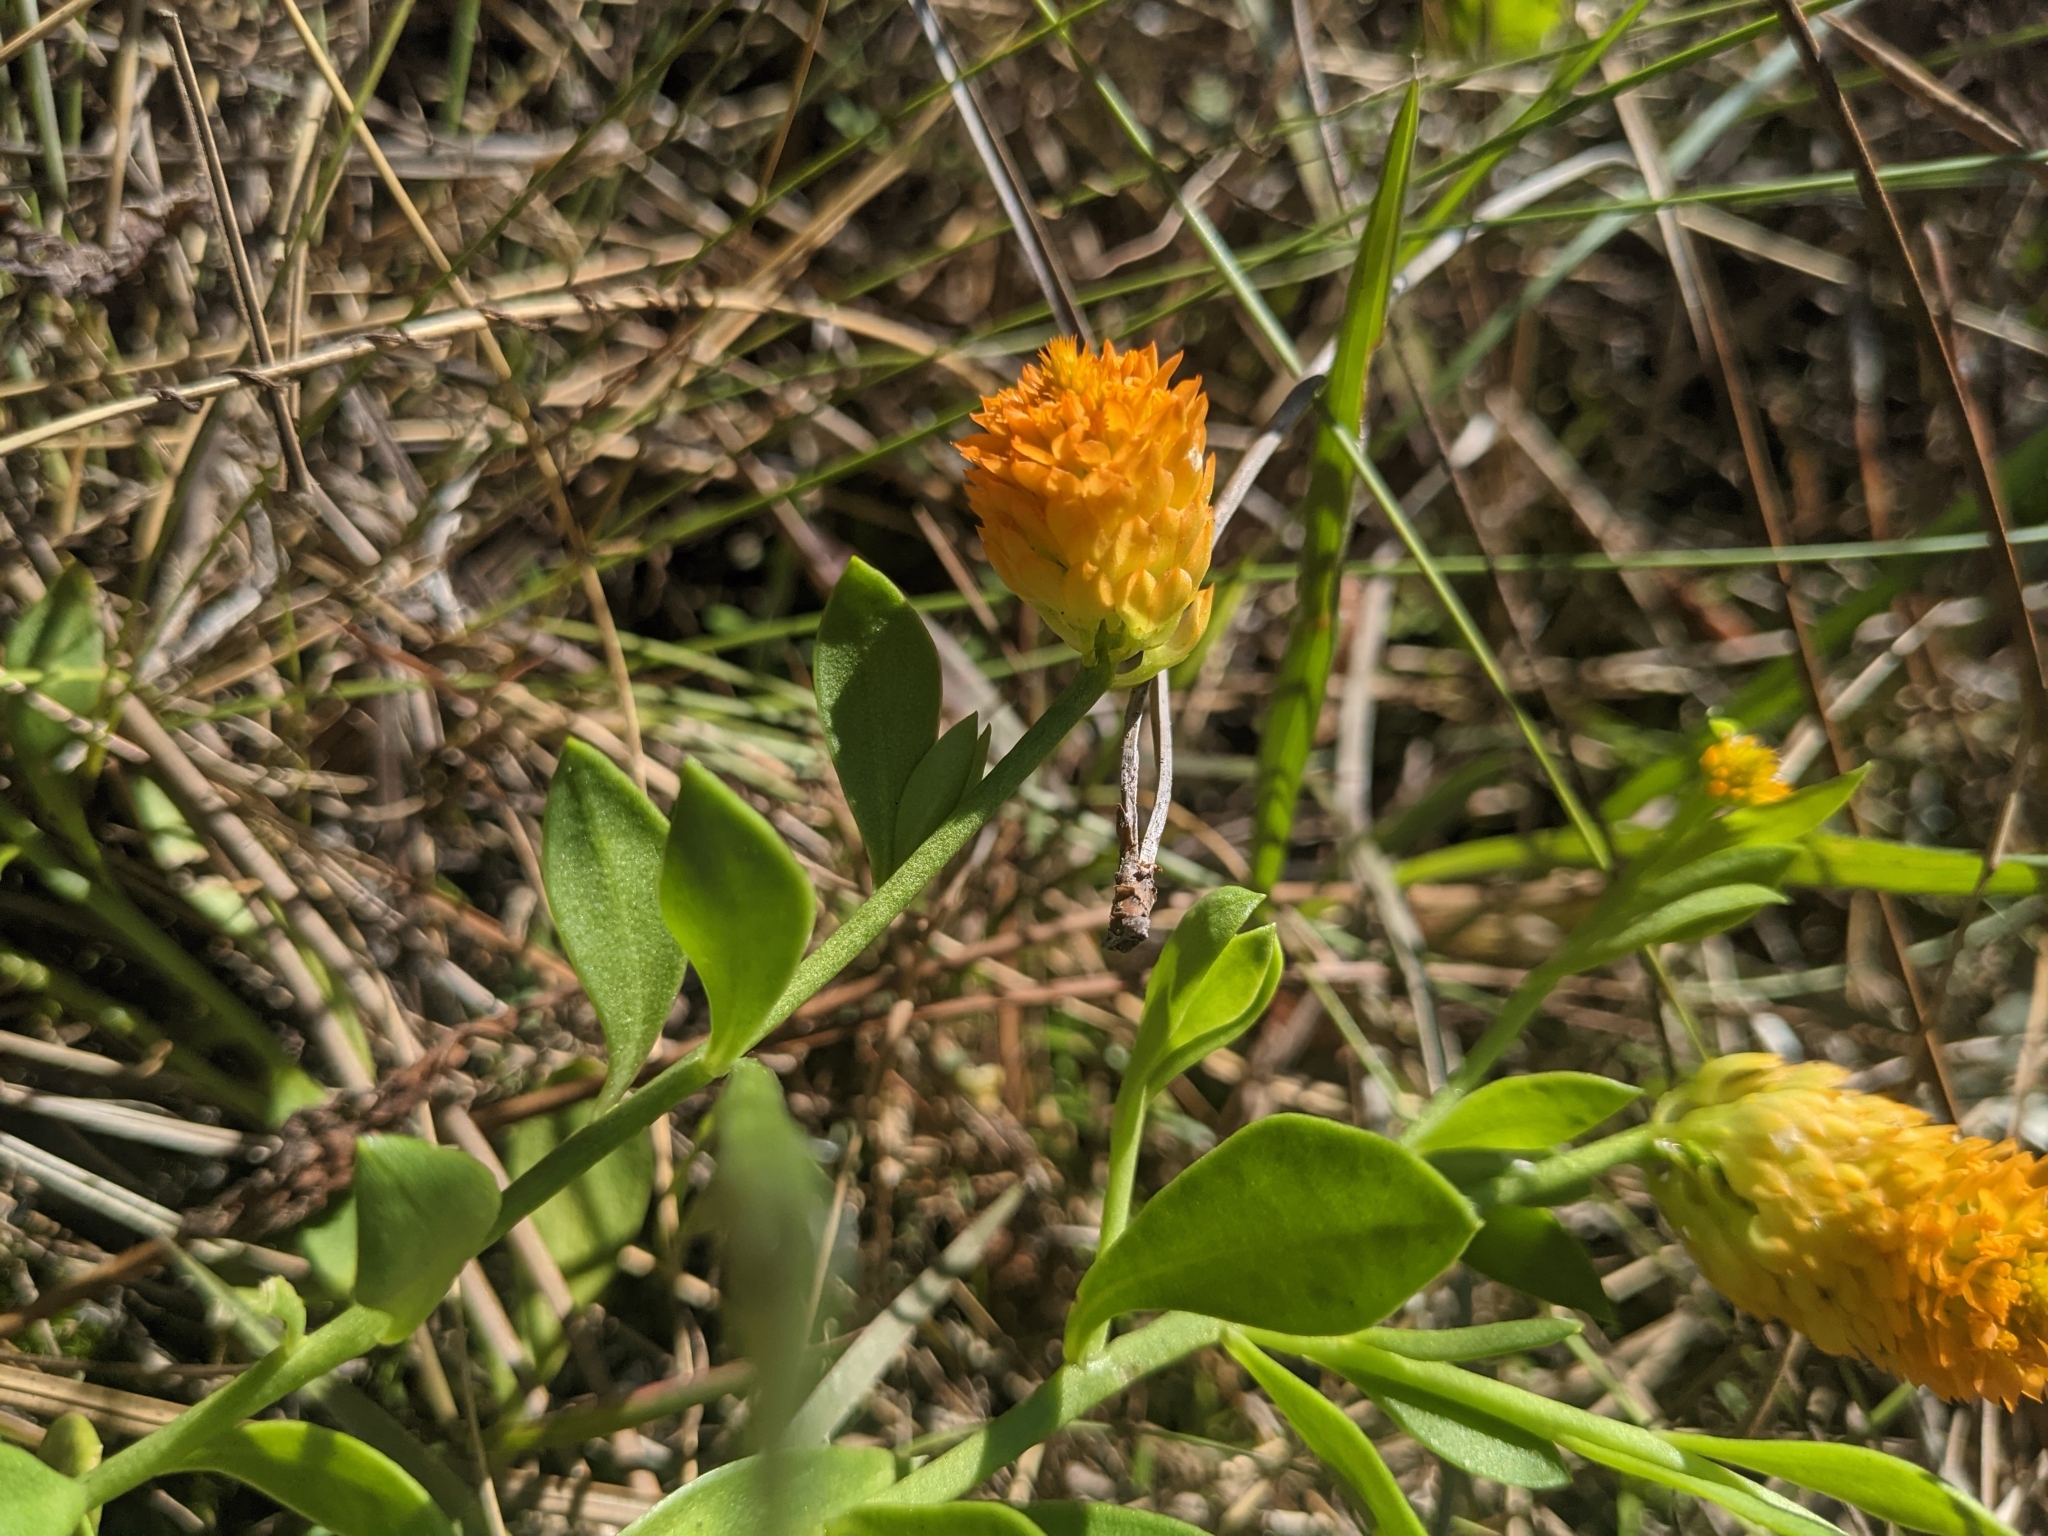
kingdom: Plantae
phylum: Tracheophyta
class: Magnoliopsida
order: Fabales
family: Polygalaceae
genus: Polygala
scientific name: Polygala lutea
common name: Orange milkwort
